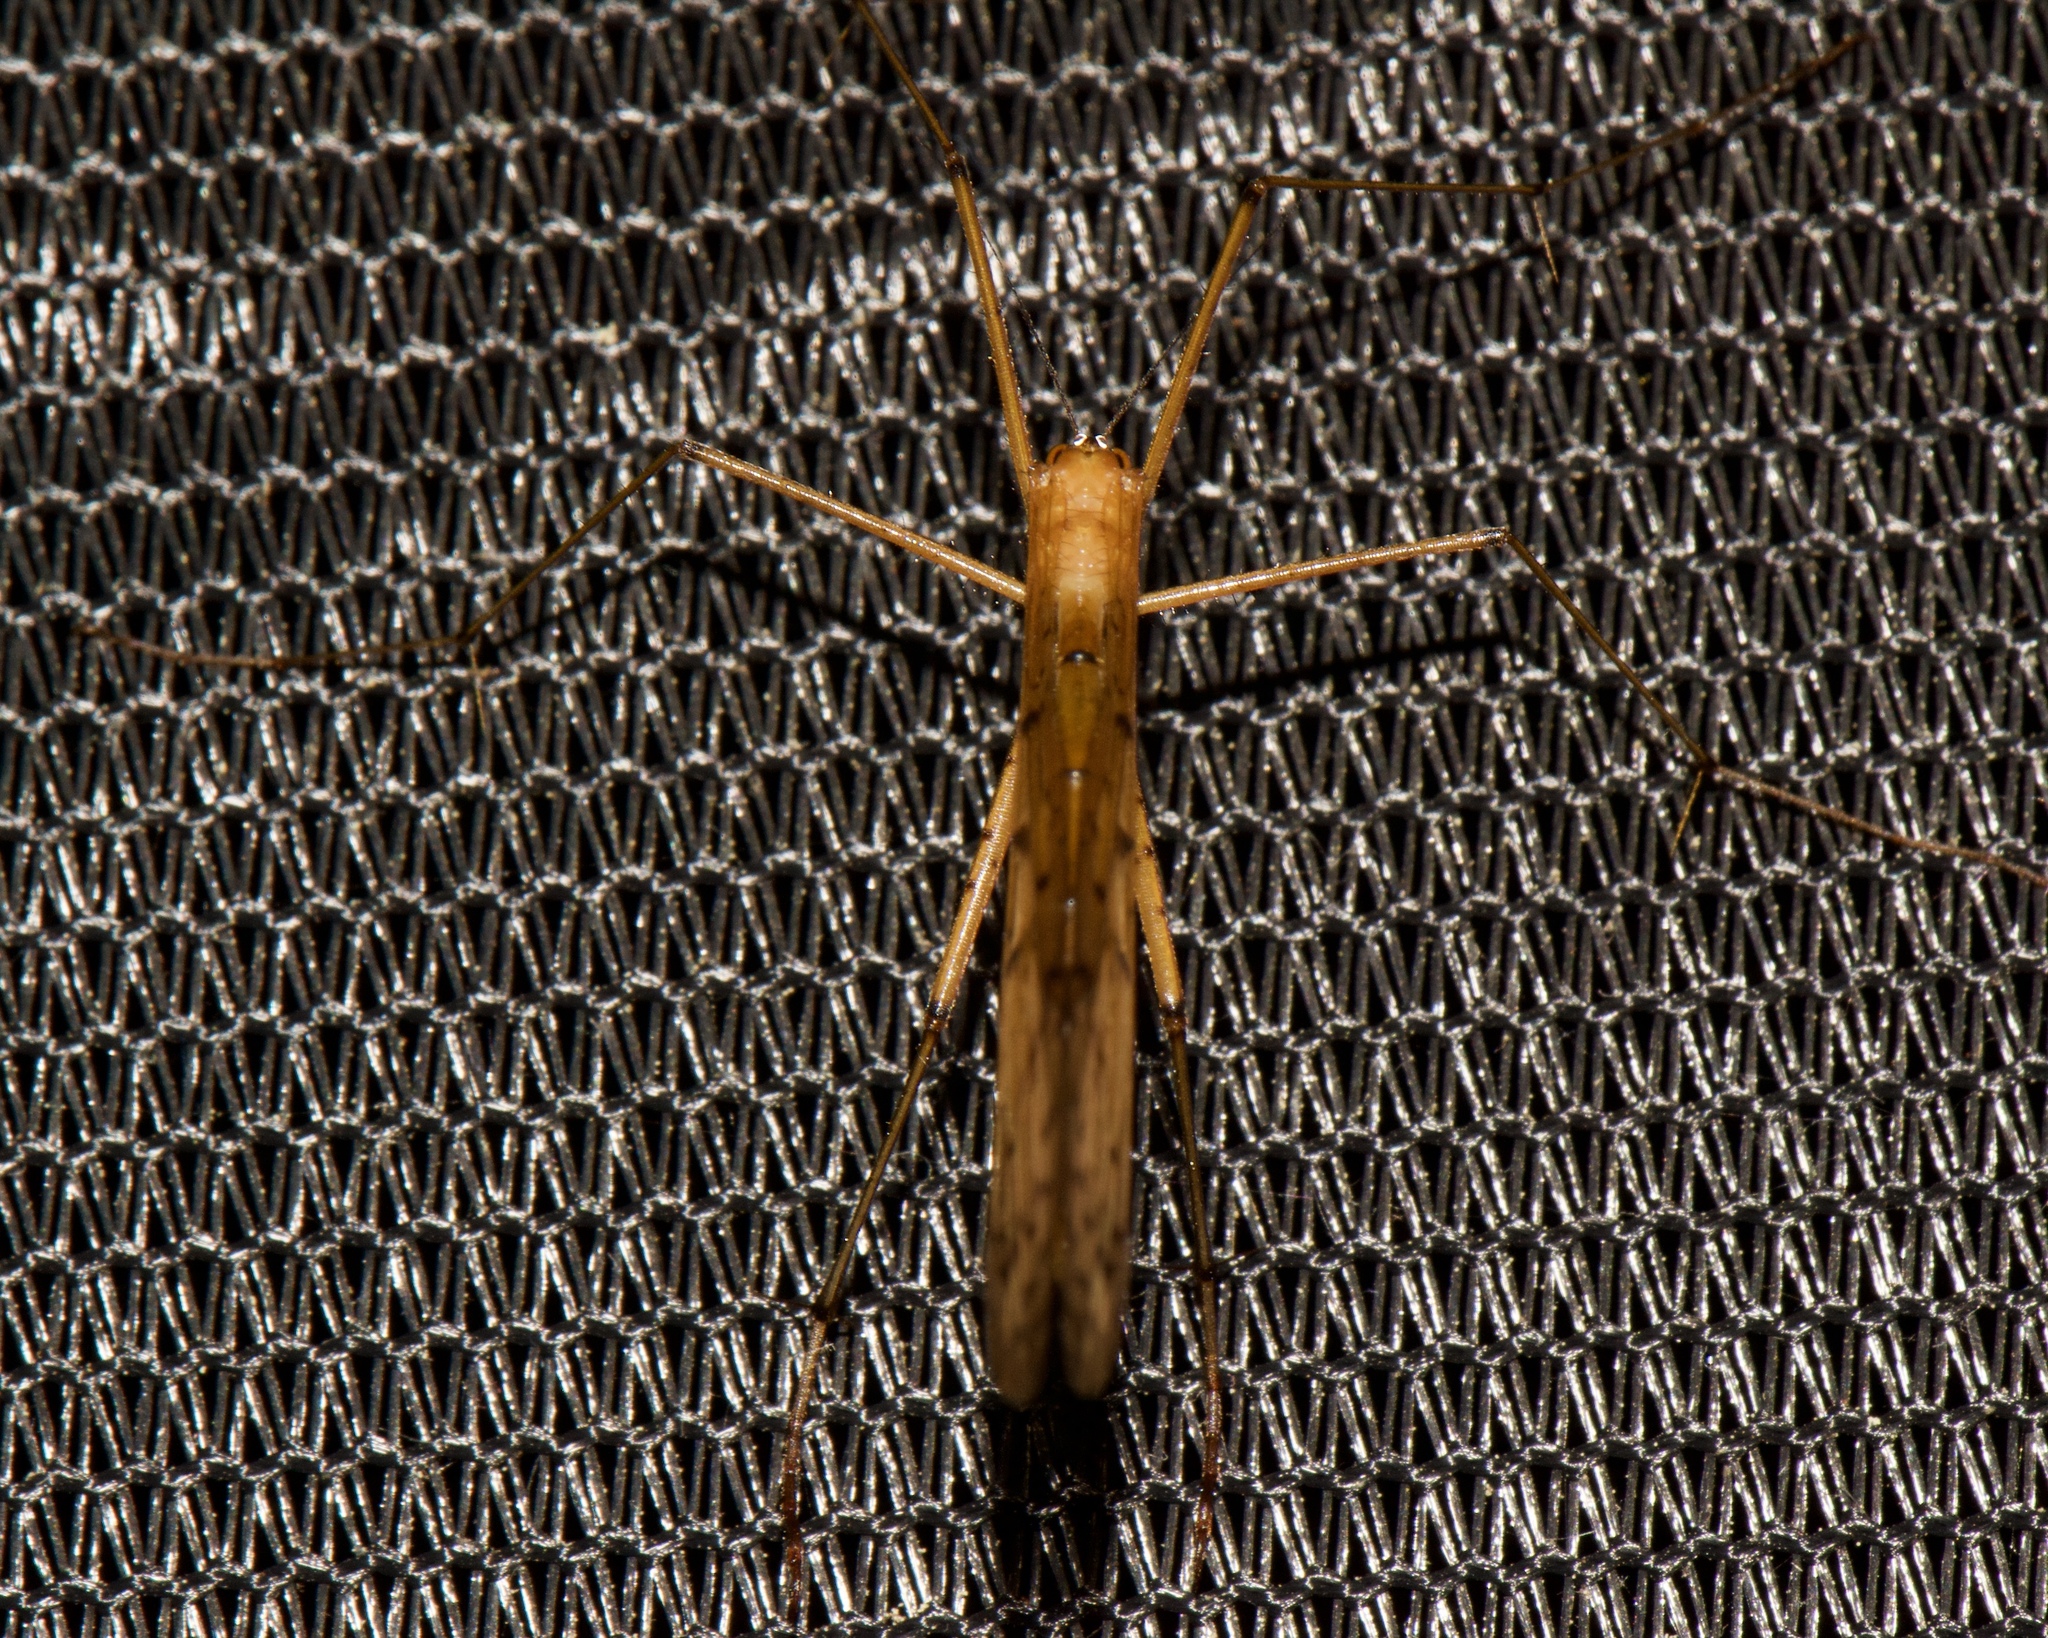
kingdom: Animalia
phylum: Arthropoda
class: Insecta
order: Mecoptera
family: Bittacidae
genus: Bittacus
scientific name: Bittacus punctiger
